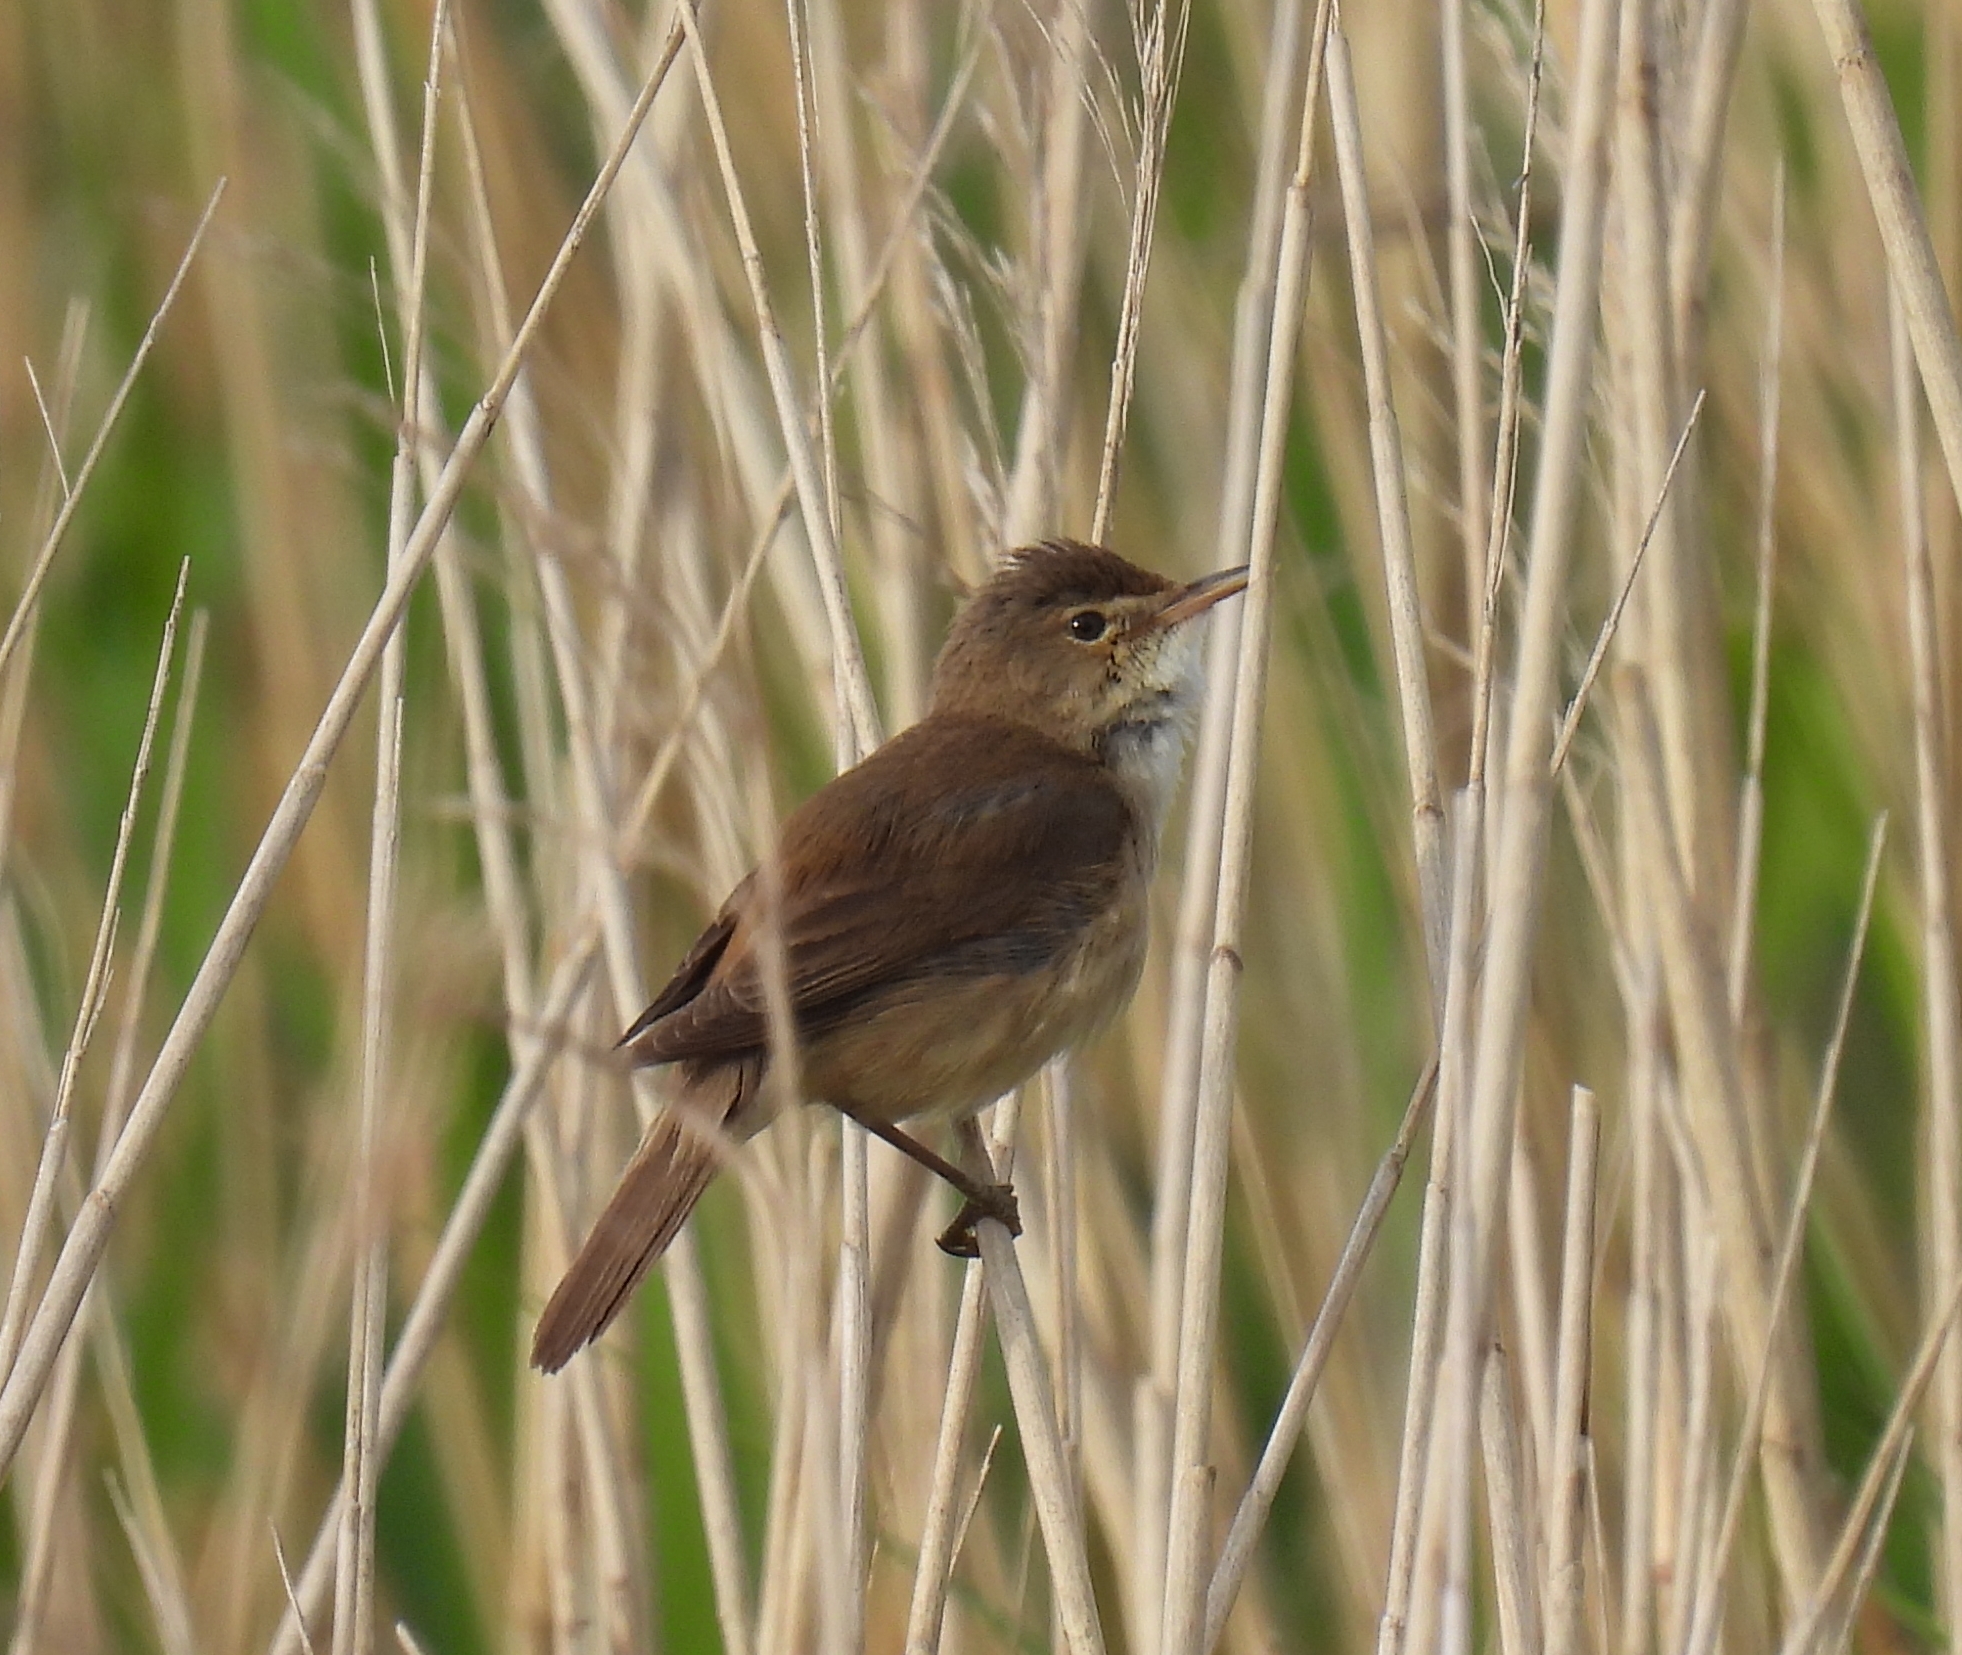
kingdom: Animalia
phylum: Chordata
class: Aves
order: Passeriformes
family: Acrocephalidae
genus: Acrocephalus
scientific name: Acrocephalus scirpaceus
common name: Eurasian reed warbler
